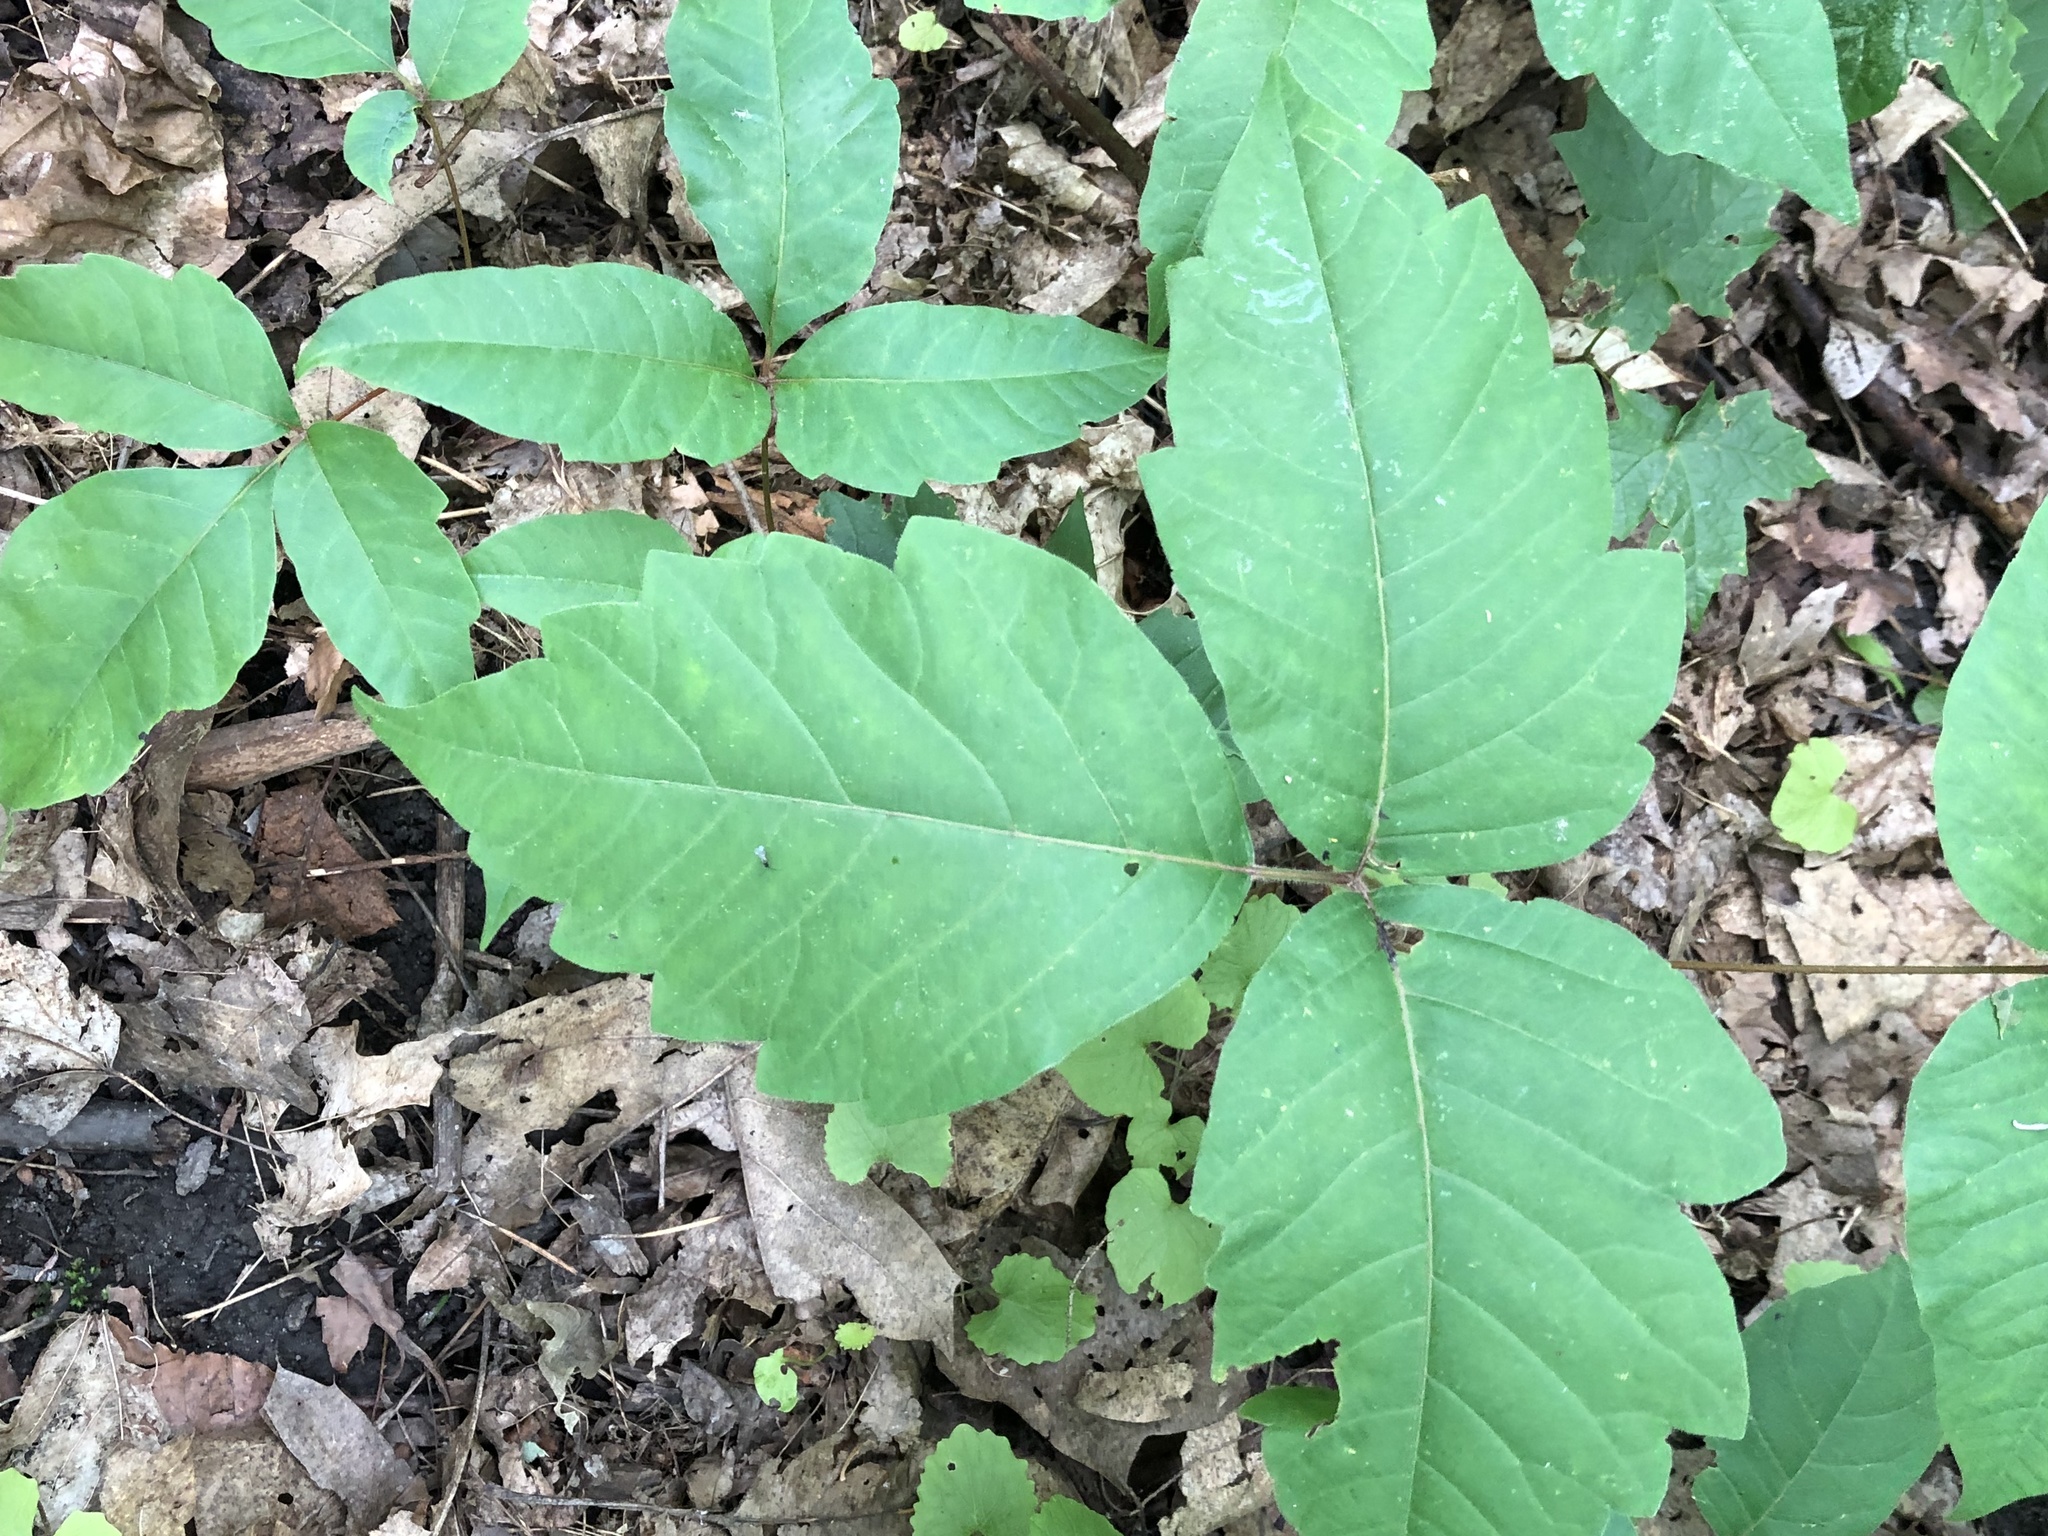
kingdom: Plantae
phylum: Tracheophyta
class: Magnoliopsida
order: Sapindales
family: Anacardiaceae
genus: Toxicodendron
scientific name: Toxicodendron radicans
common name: Poison ivy
